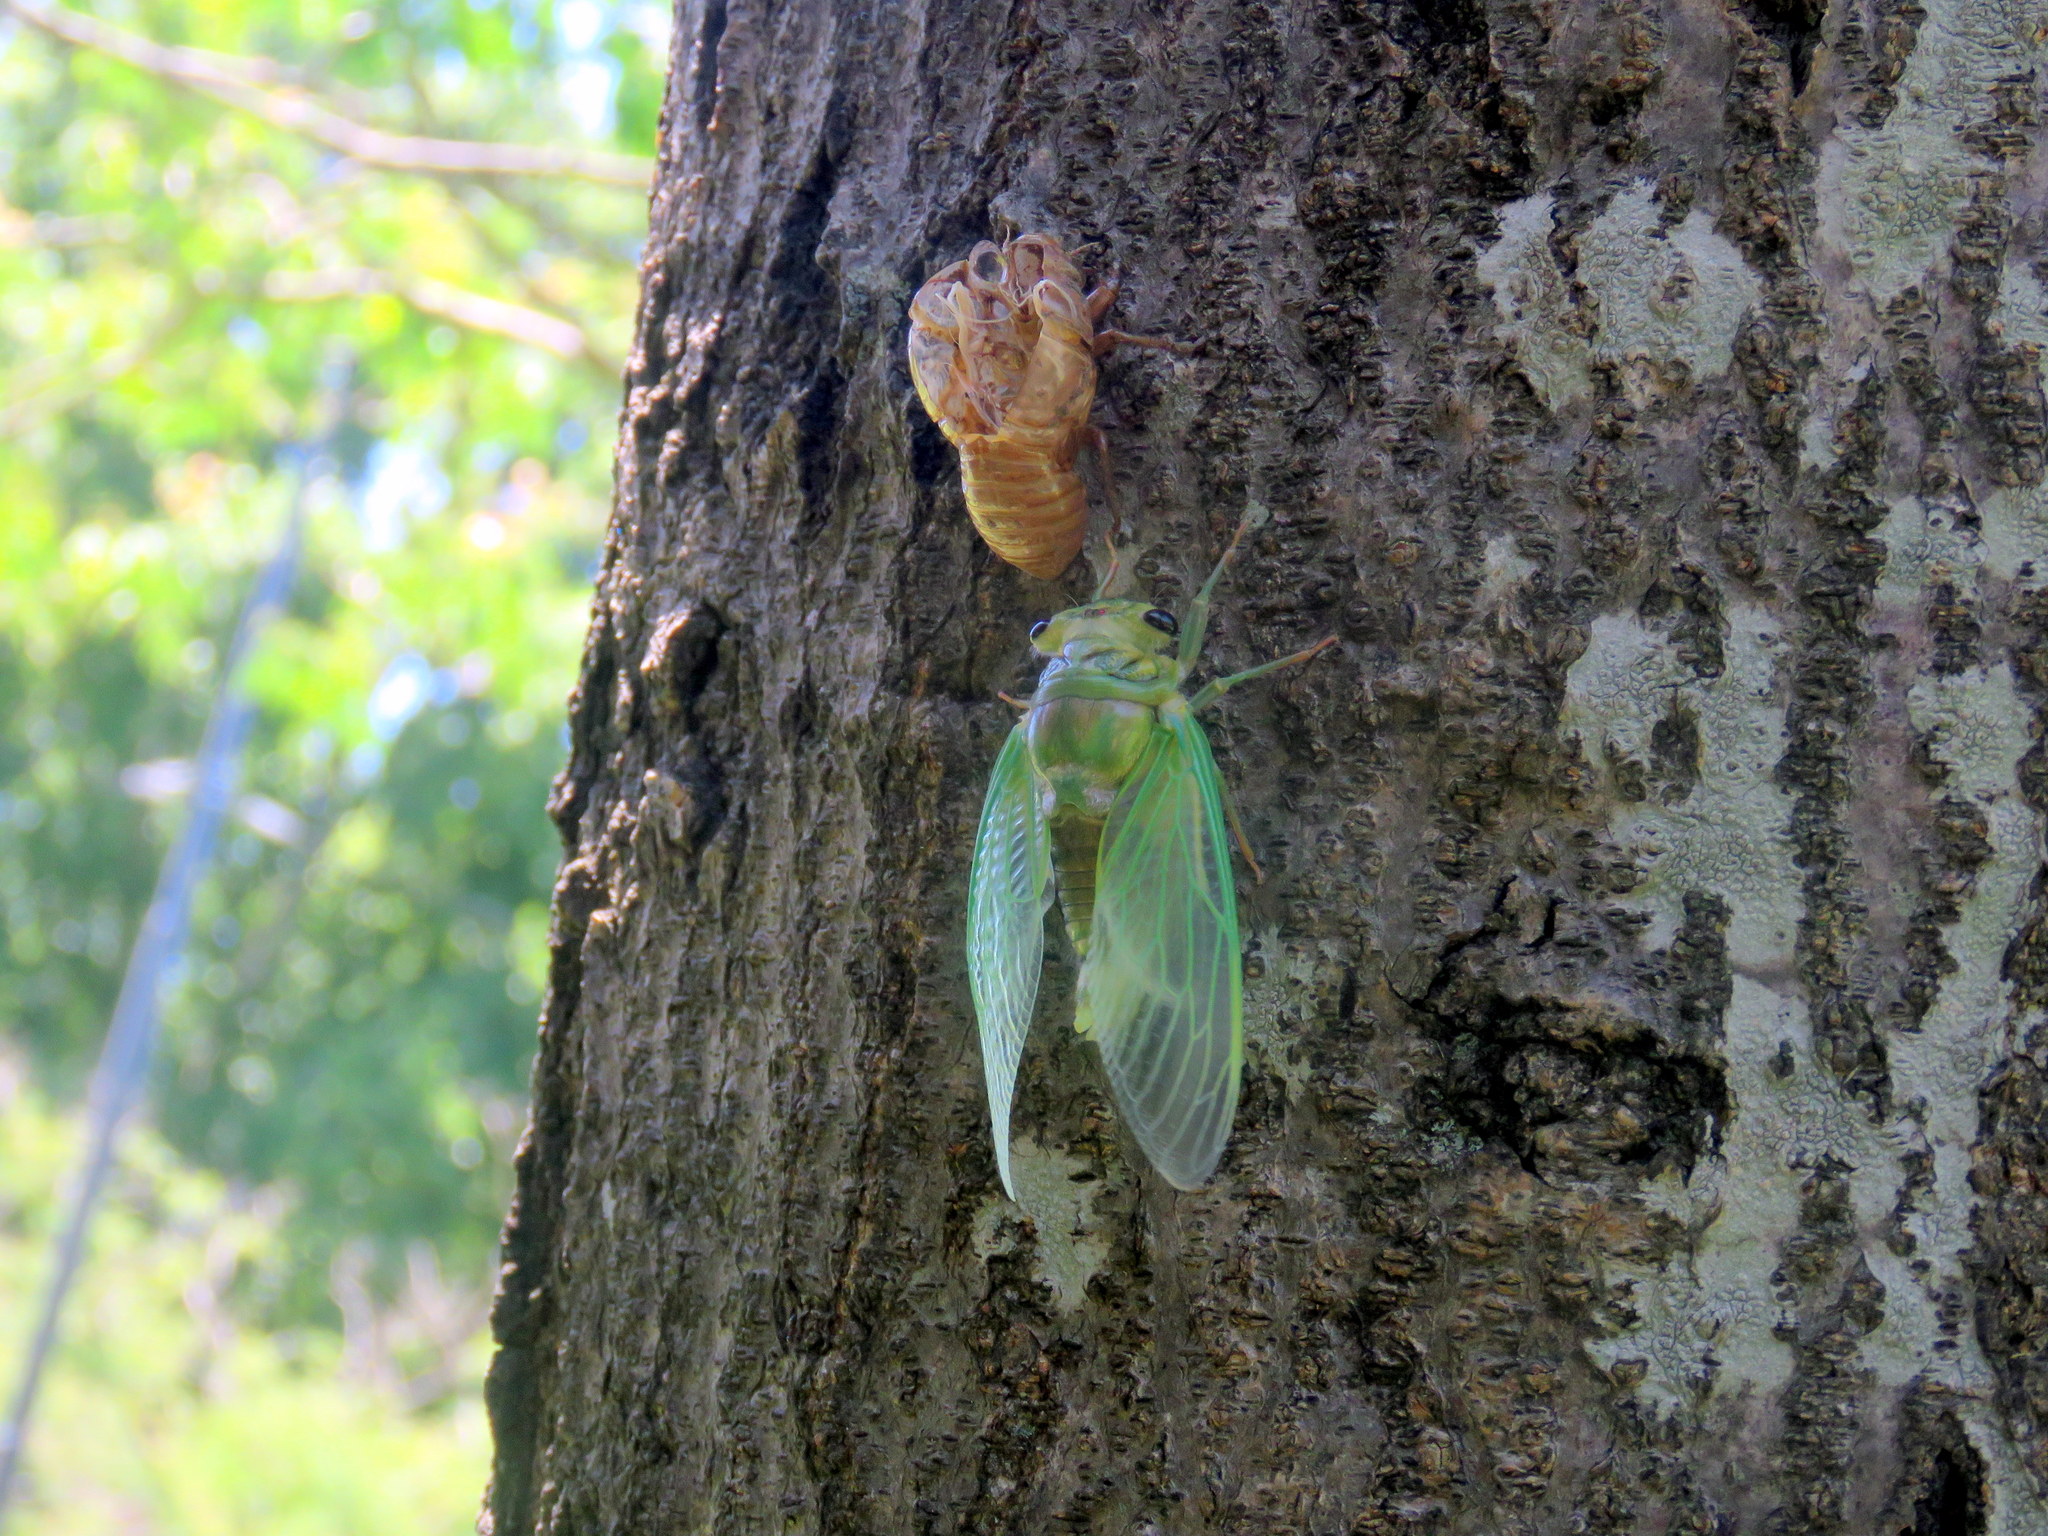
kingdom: Animalia
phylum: Arthropoda
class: Insecta
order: Hemiptera
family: Cicadidae
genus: Acanthoventris
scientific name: Acanthoventris drewseni
